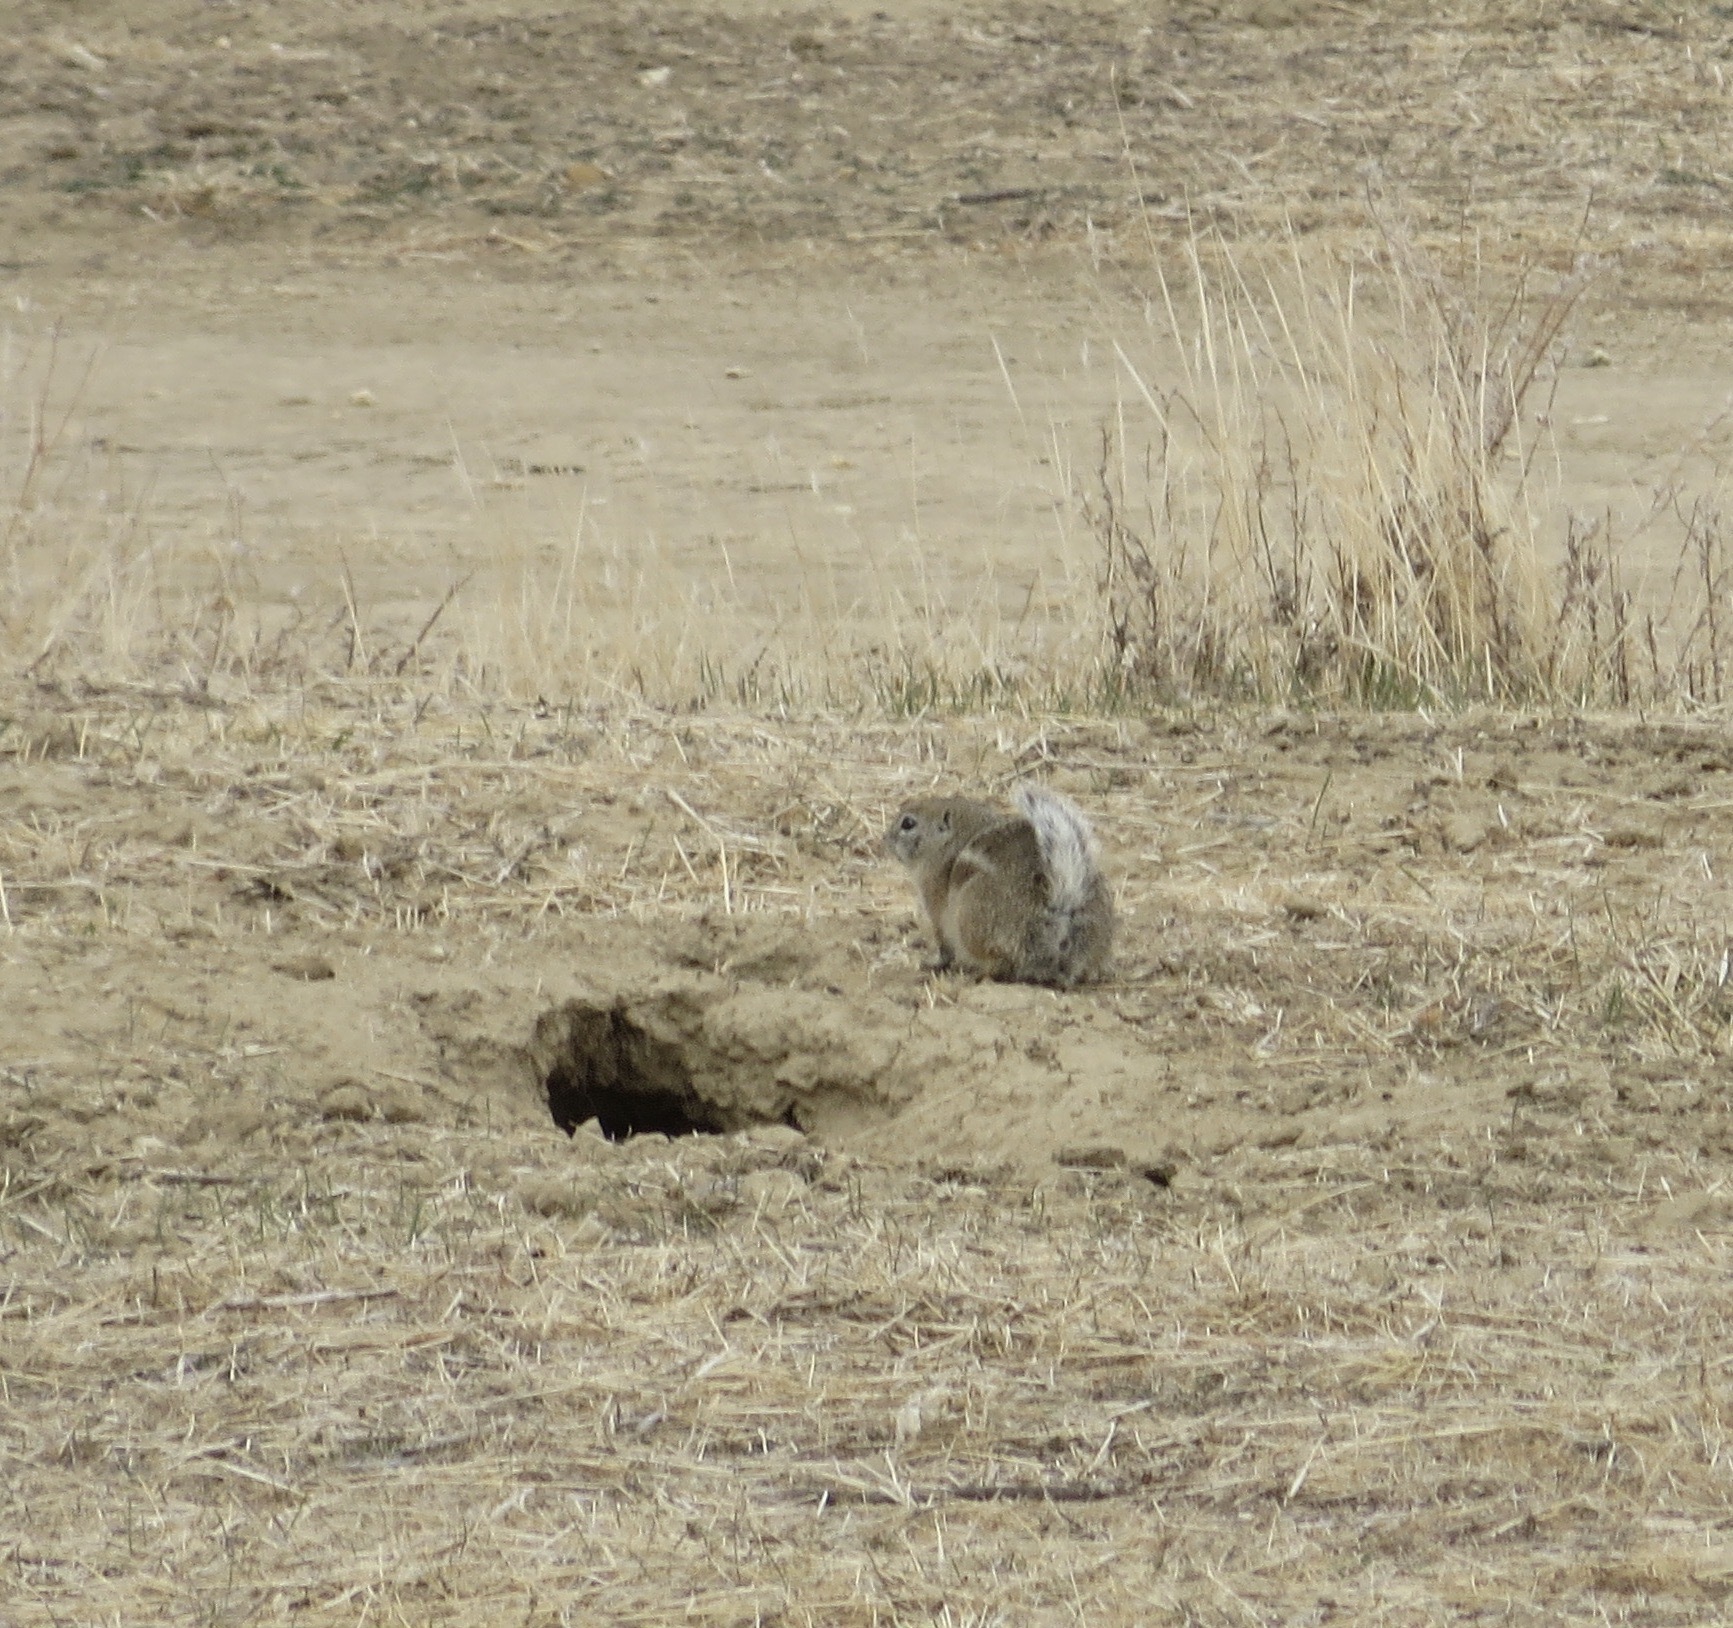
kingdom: Animalia
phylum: Chordata
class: Mammalia
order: Rodentia
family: Sciuridae
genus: Ammospermophilus
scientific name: Ammospermophilus nelsoni
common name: Nelson's antelope squirrel
